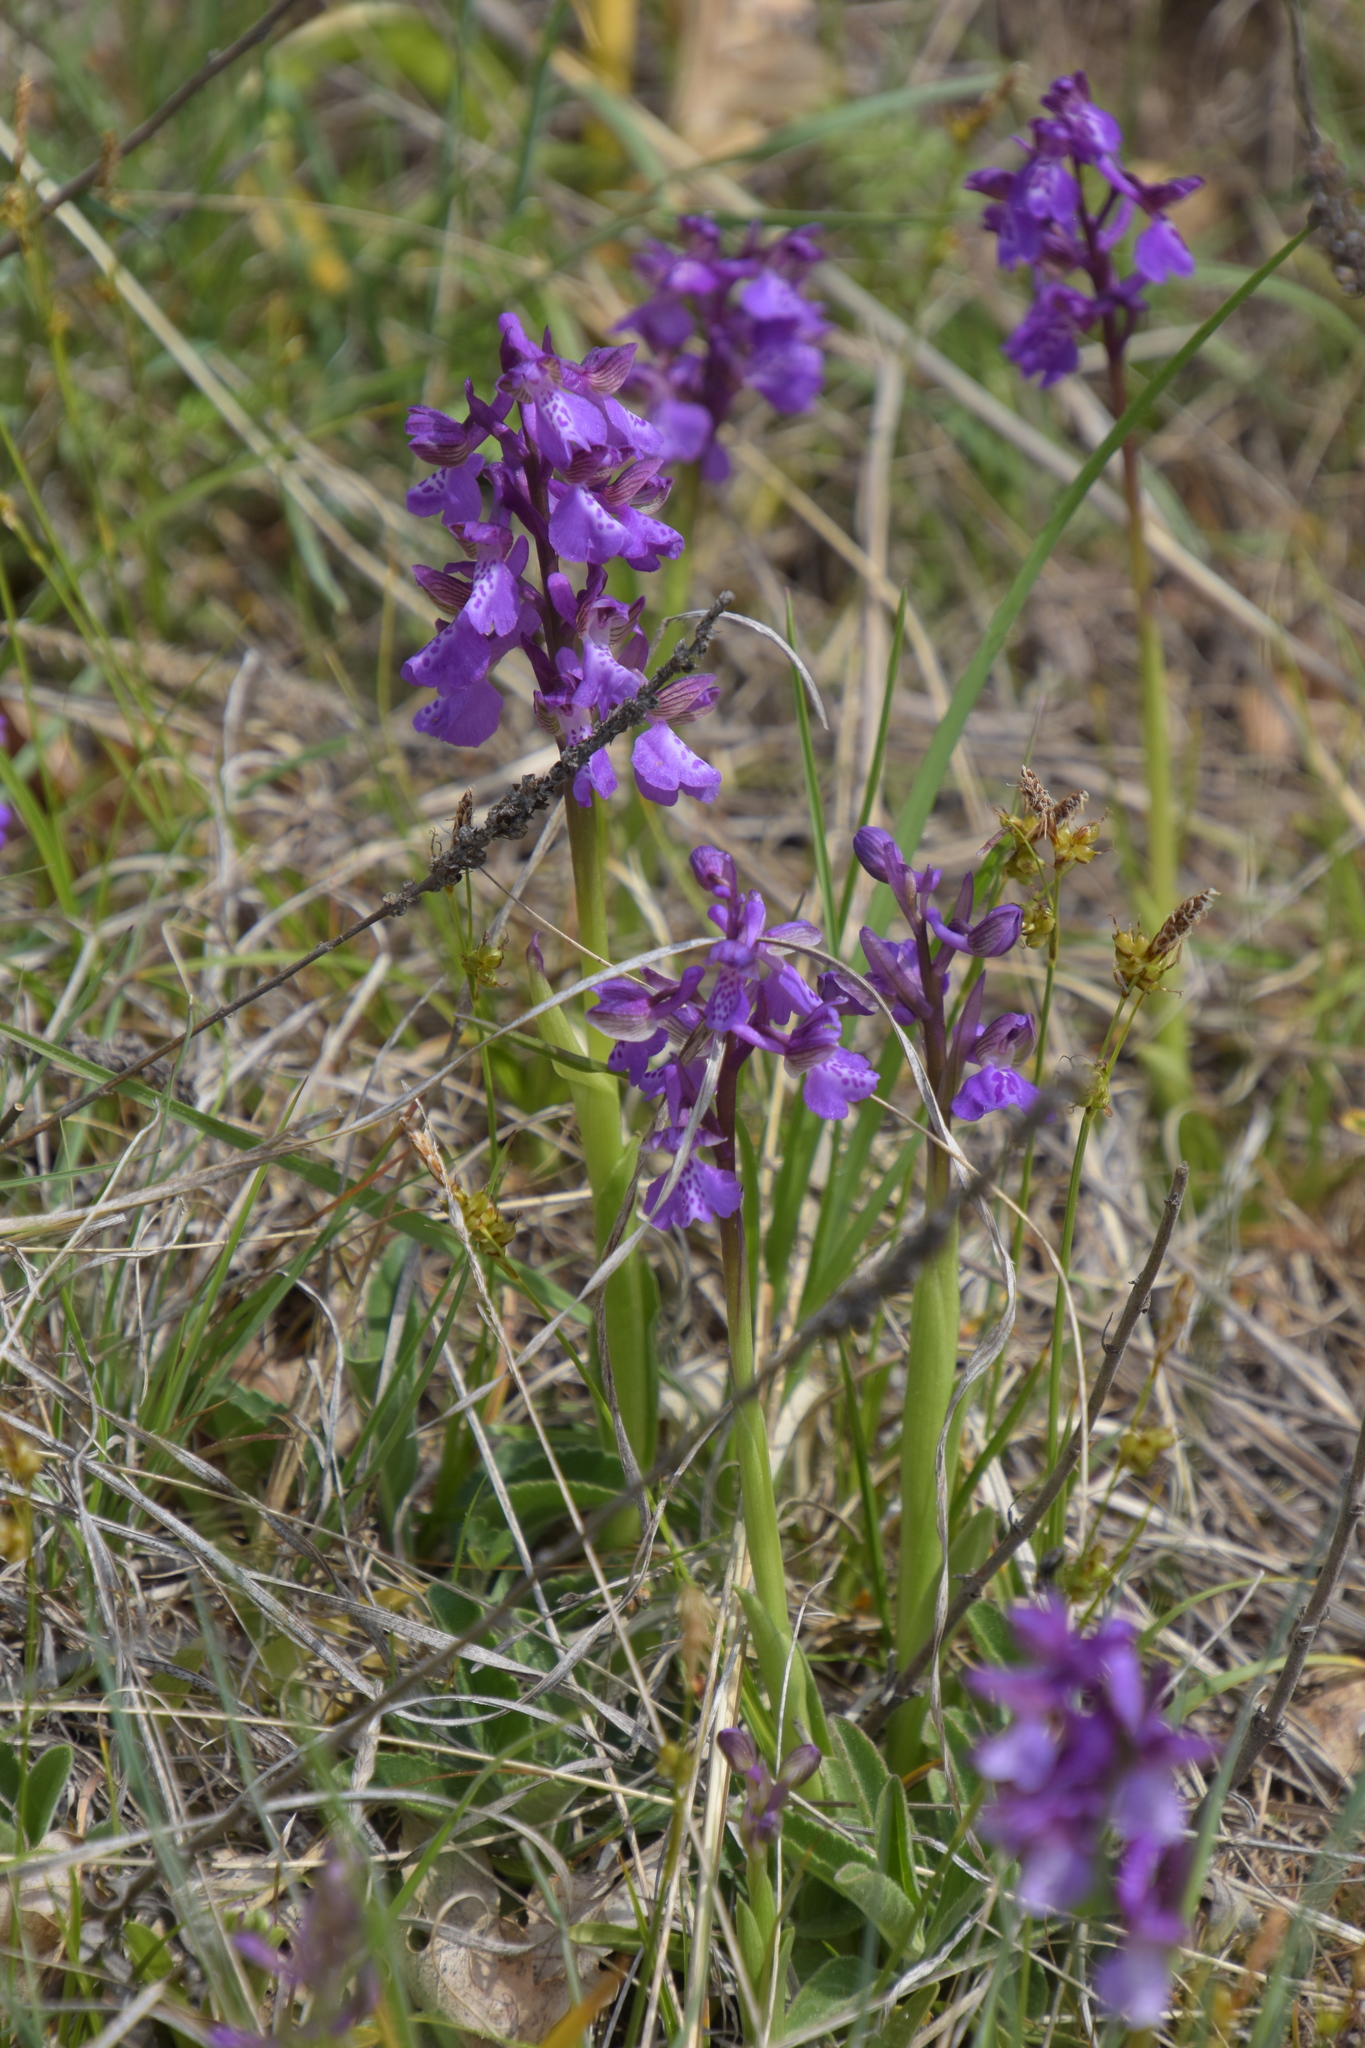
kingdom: Plantae
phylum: Tracheophyta
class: Liliopsida
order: Asparagales
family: Orchidaceae
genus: Anacamptis
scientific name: Anacamptis morio
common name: Green-winged orchid
